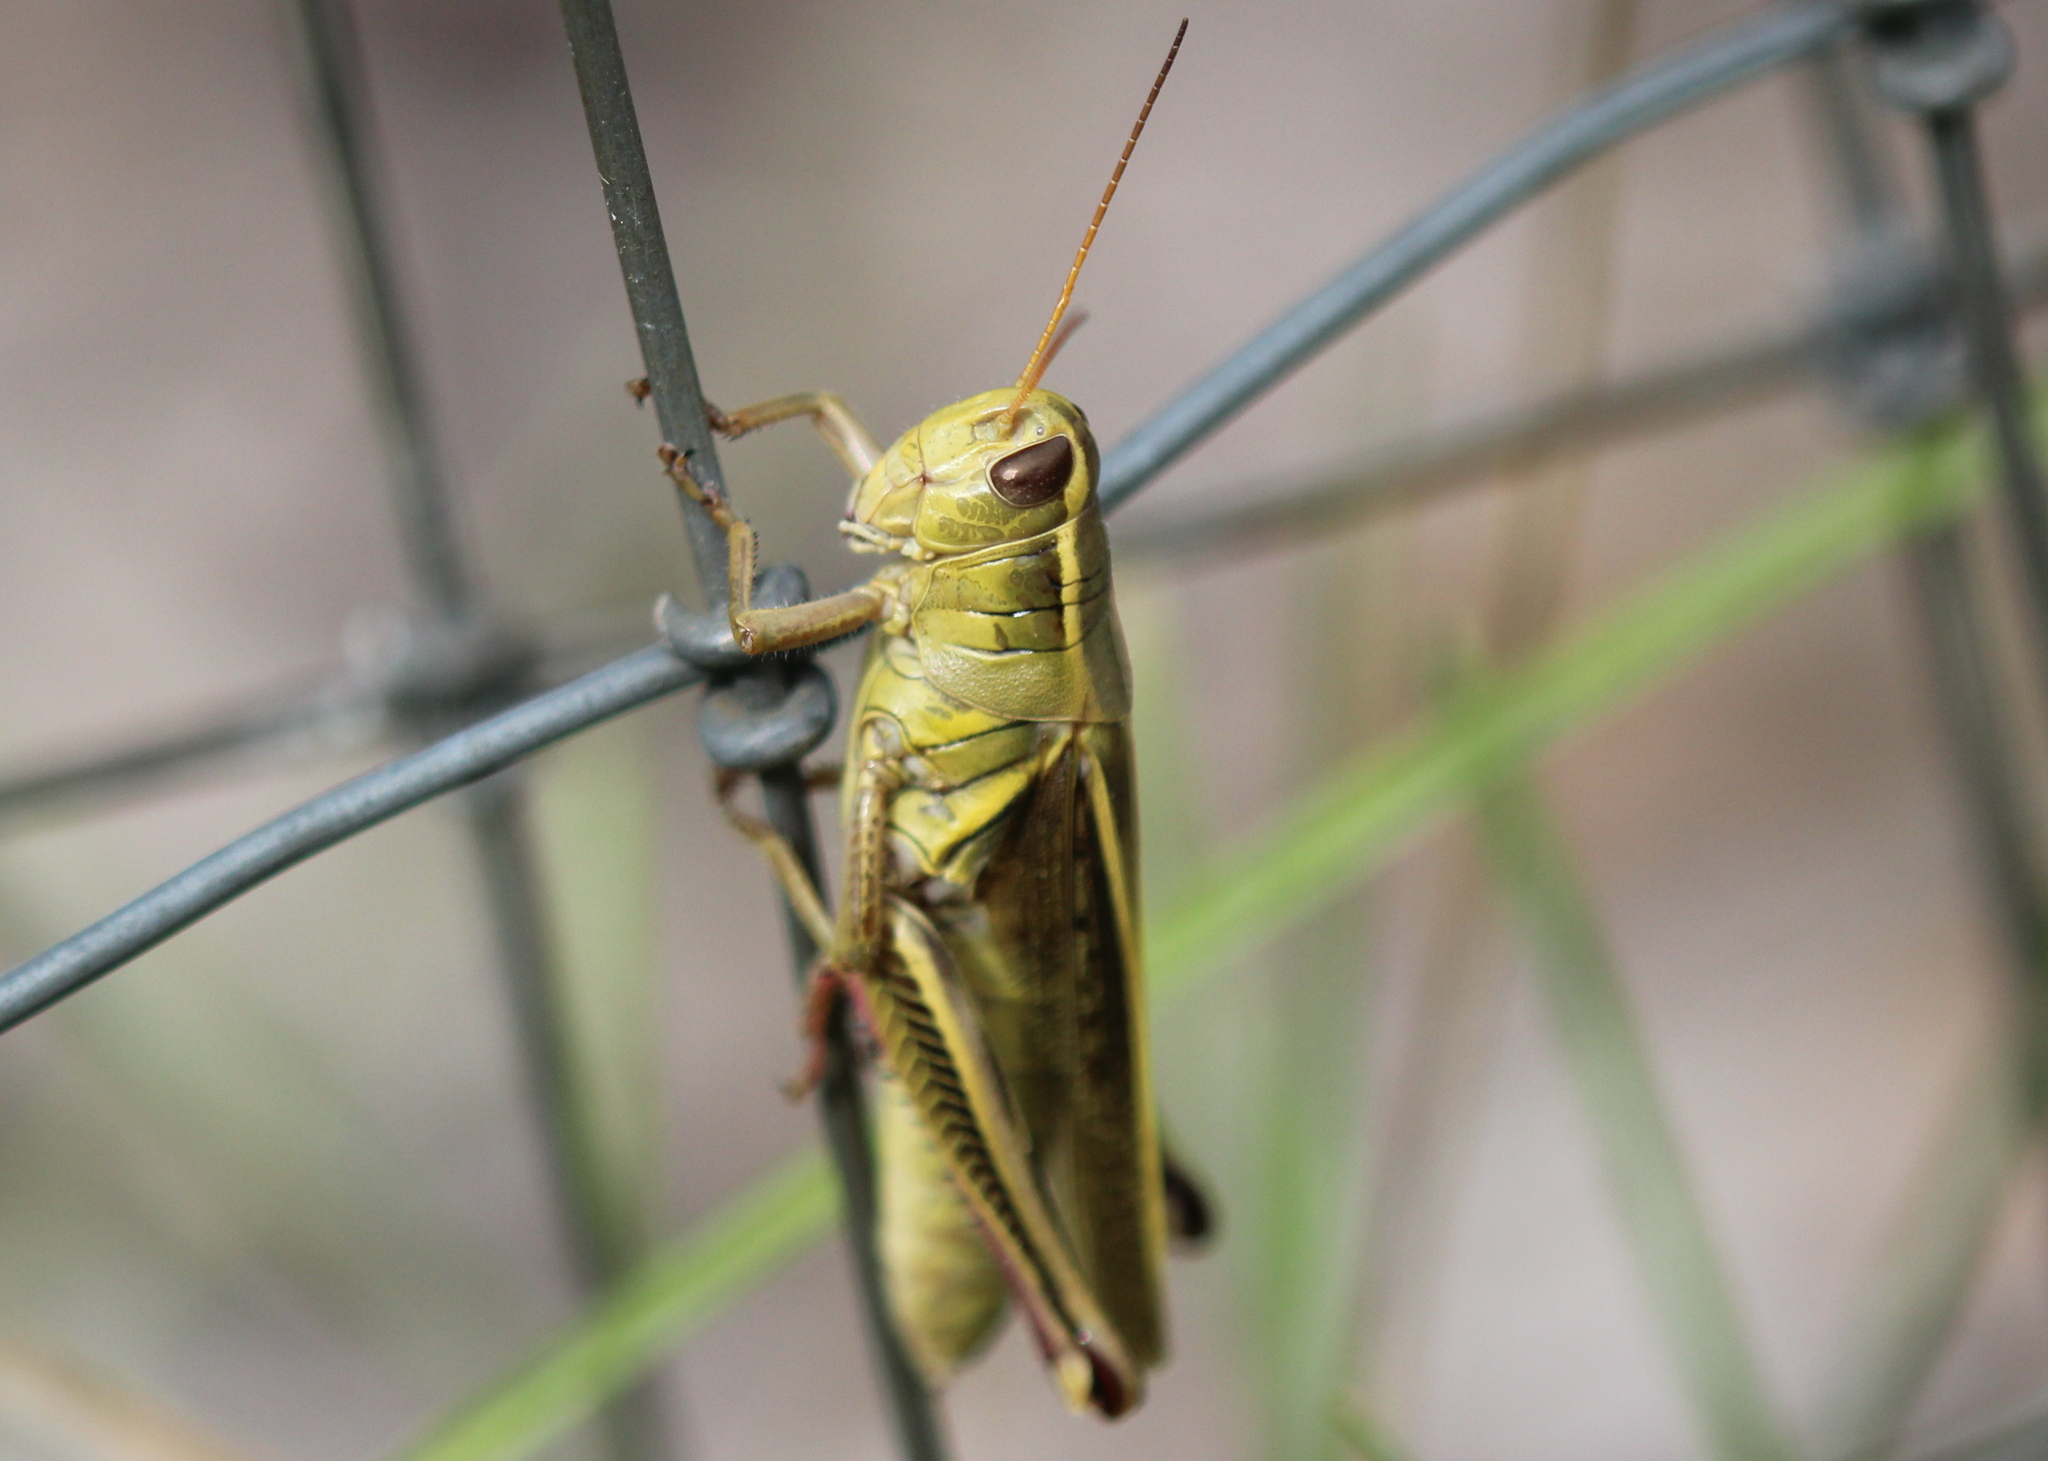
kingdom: Animalia
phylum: Arthropoda
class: Insecta
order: Orthoptera
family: Acrididae
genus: Melanoplus
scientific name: Melanoplus bivittatus
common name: Two-striped grasshopper
